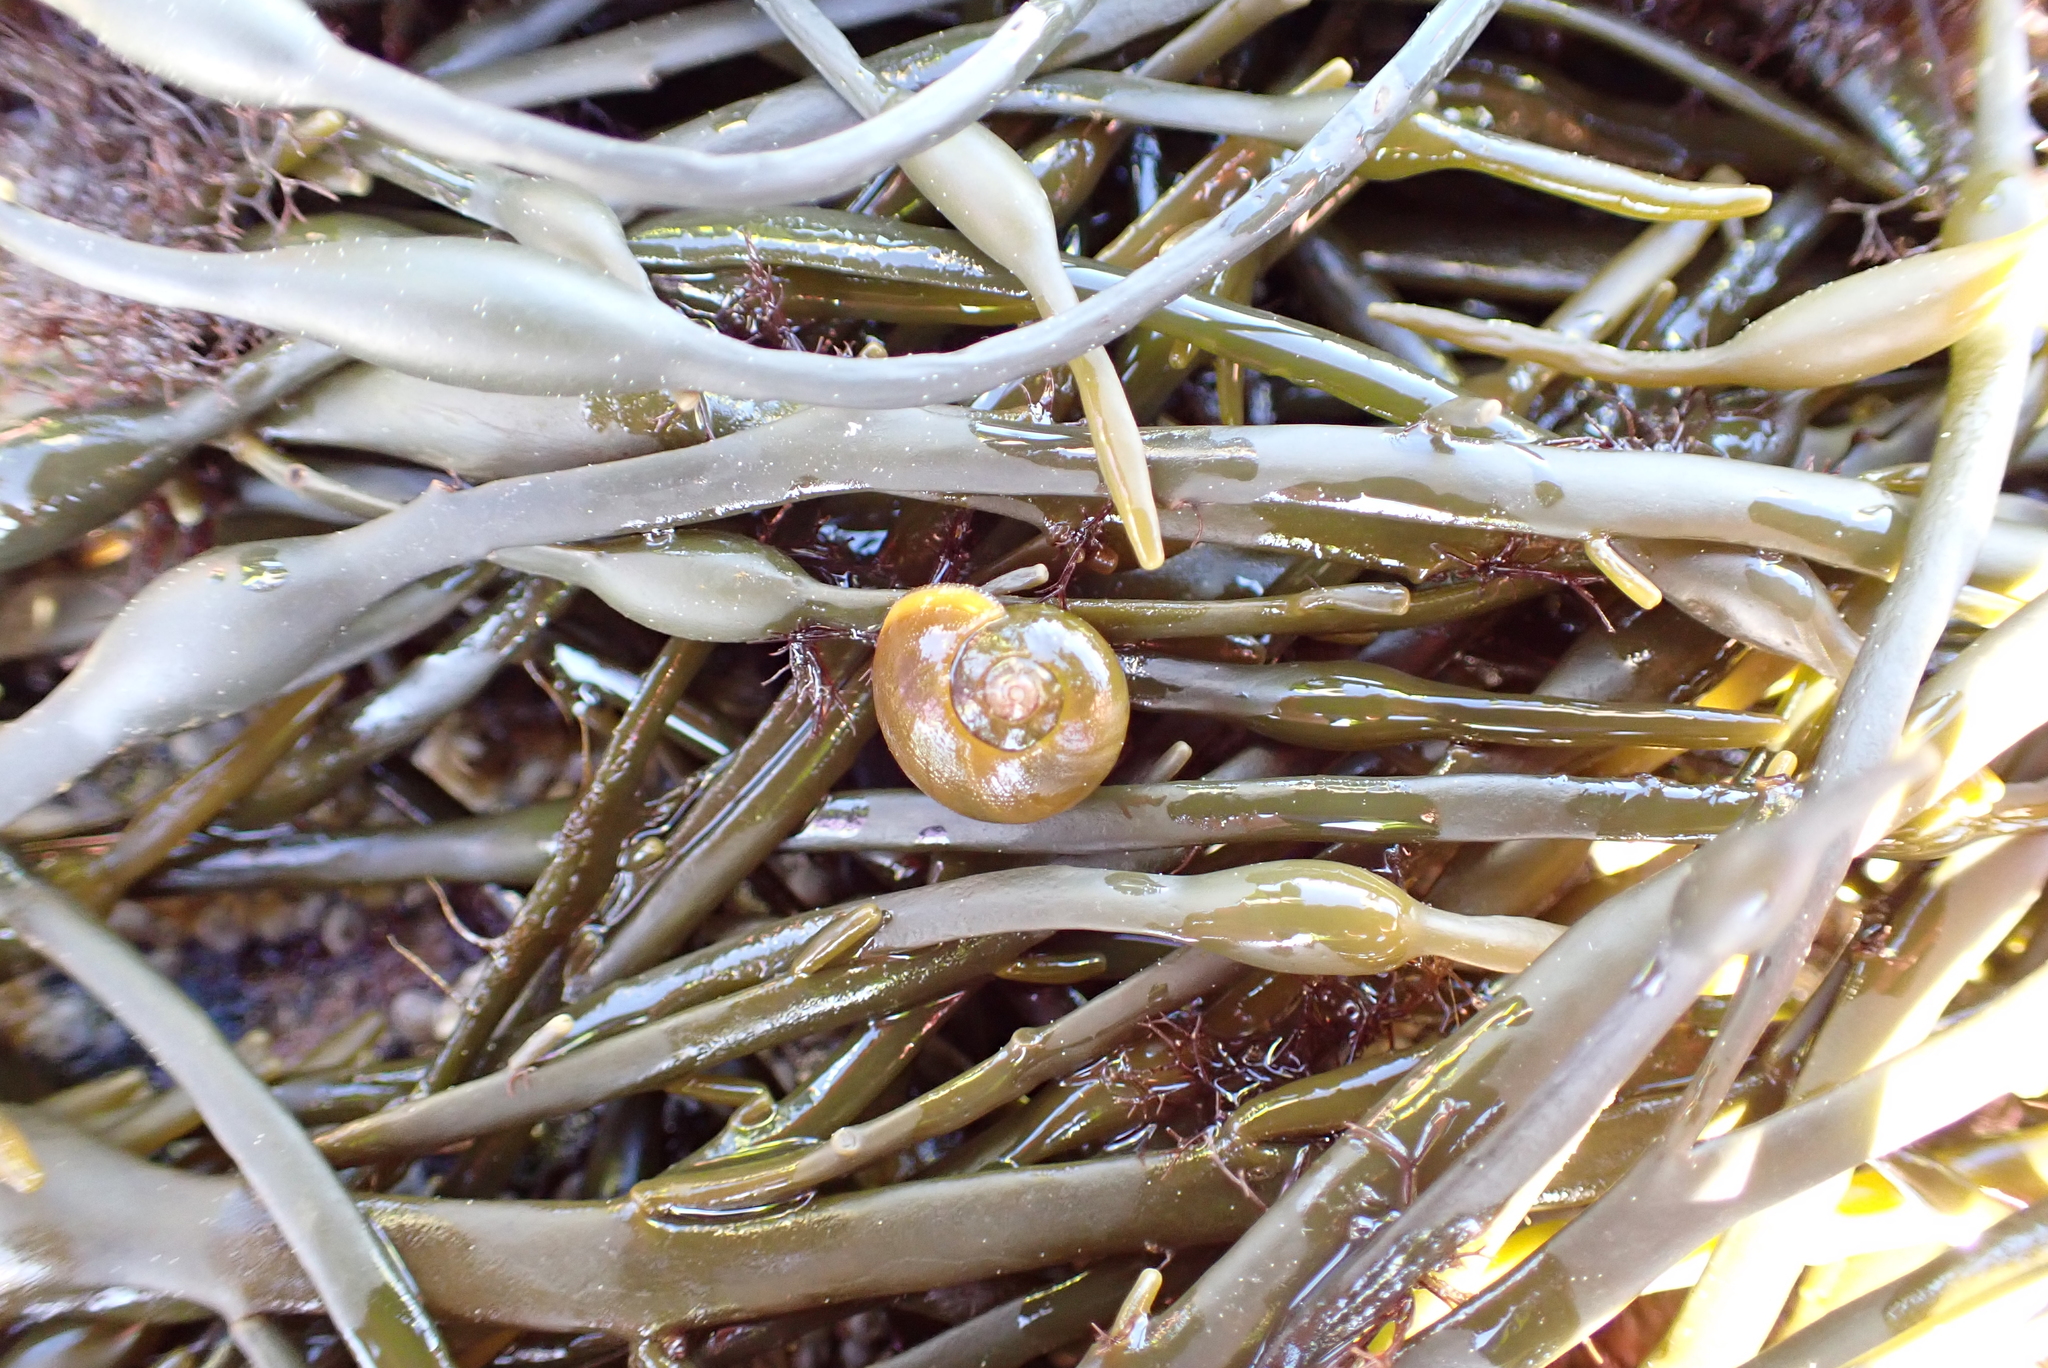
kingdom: Animalia
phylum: Mollusca
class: Gastropoda
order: Littorinimorpha
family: Littorinidae
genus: Littorina
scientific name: Littorina obtusata
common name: Flat periwinkle
